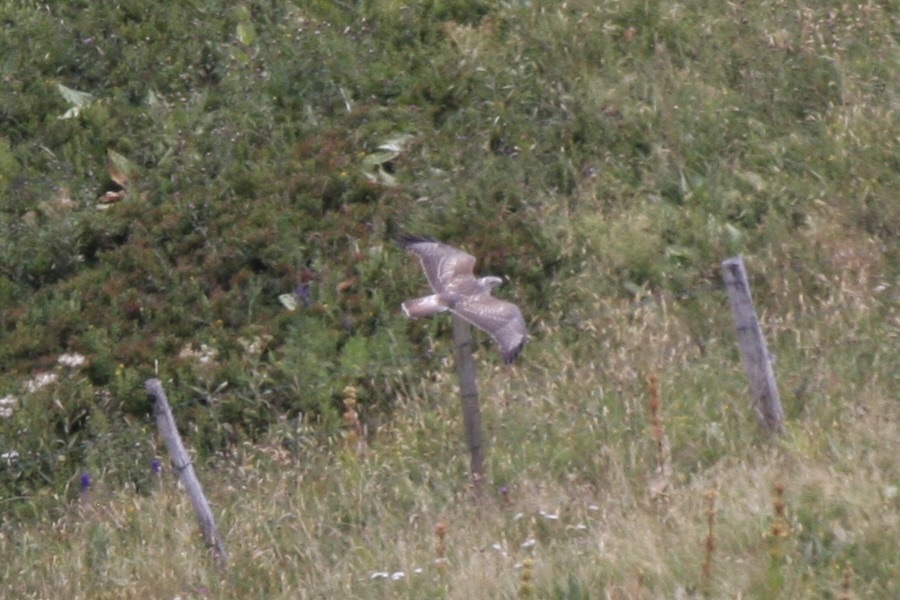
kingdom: Animalia
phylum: Chordata
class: Aves
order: Accipitriformes
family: Accipitridae
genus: Buteo
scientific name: Buteo buteo
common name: Common buzzard
